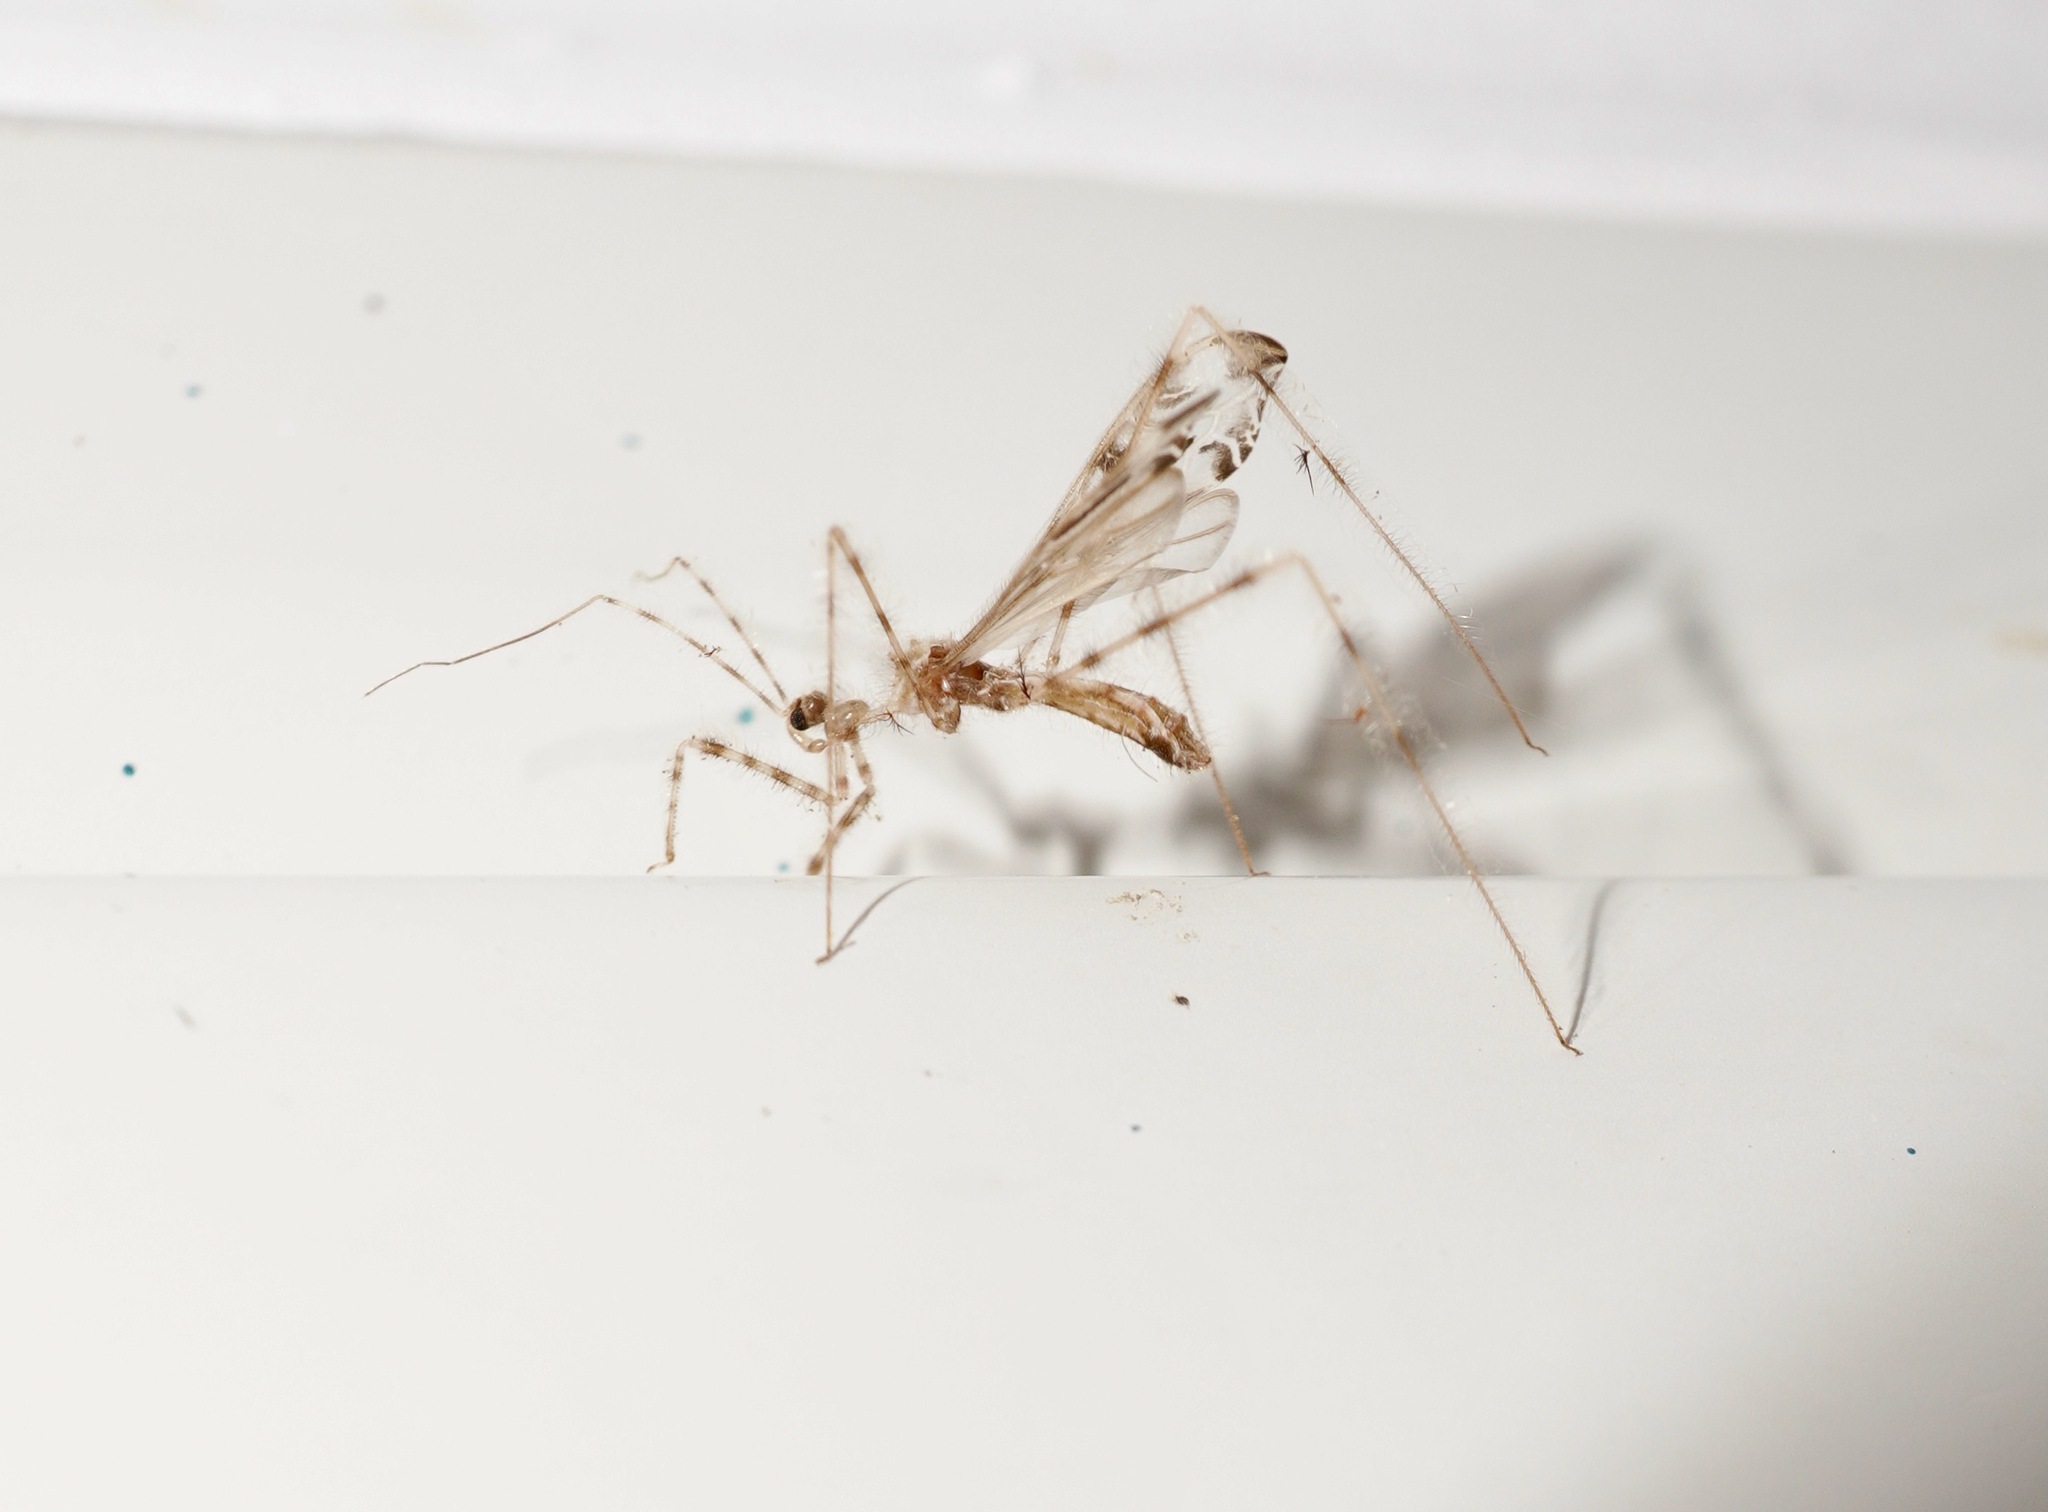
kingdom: Animalia
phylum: Arthropoda
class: Insecta
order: Hemiptera
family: Reduviidae
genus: Stenolemus
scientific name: Stenolemus fraterculus
